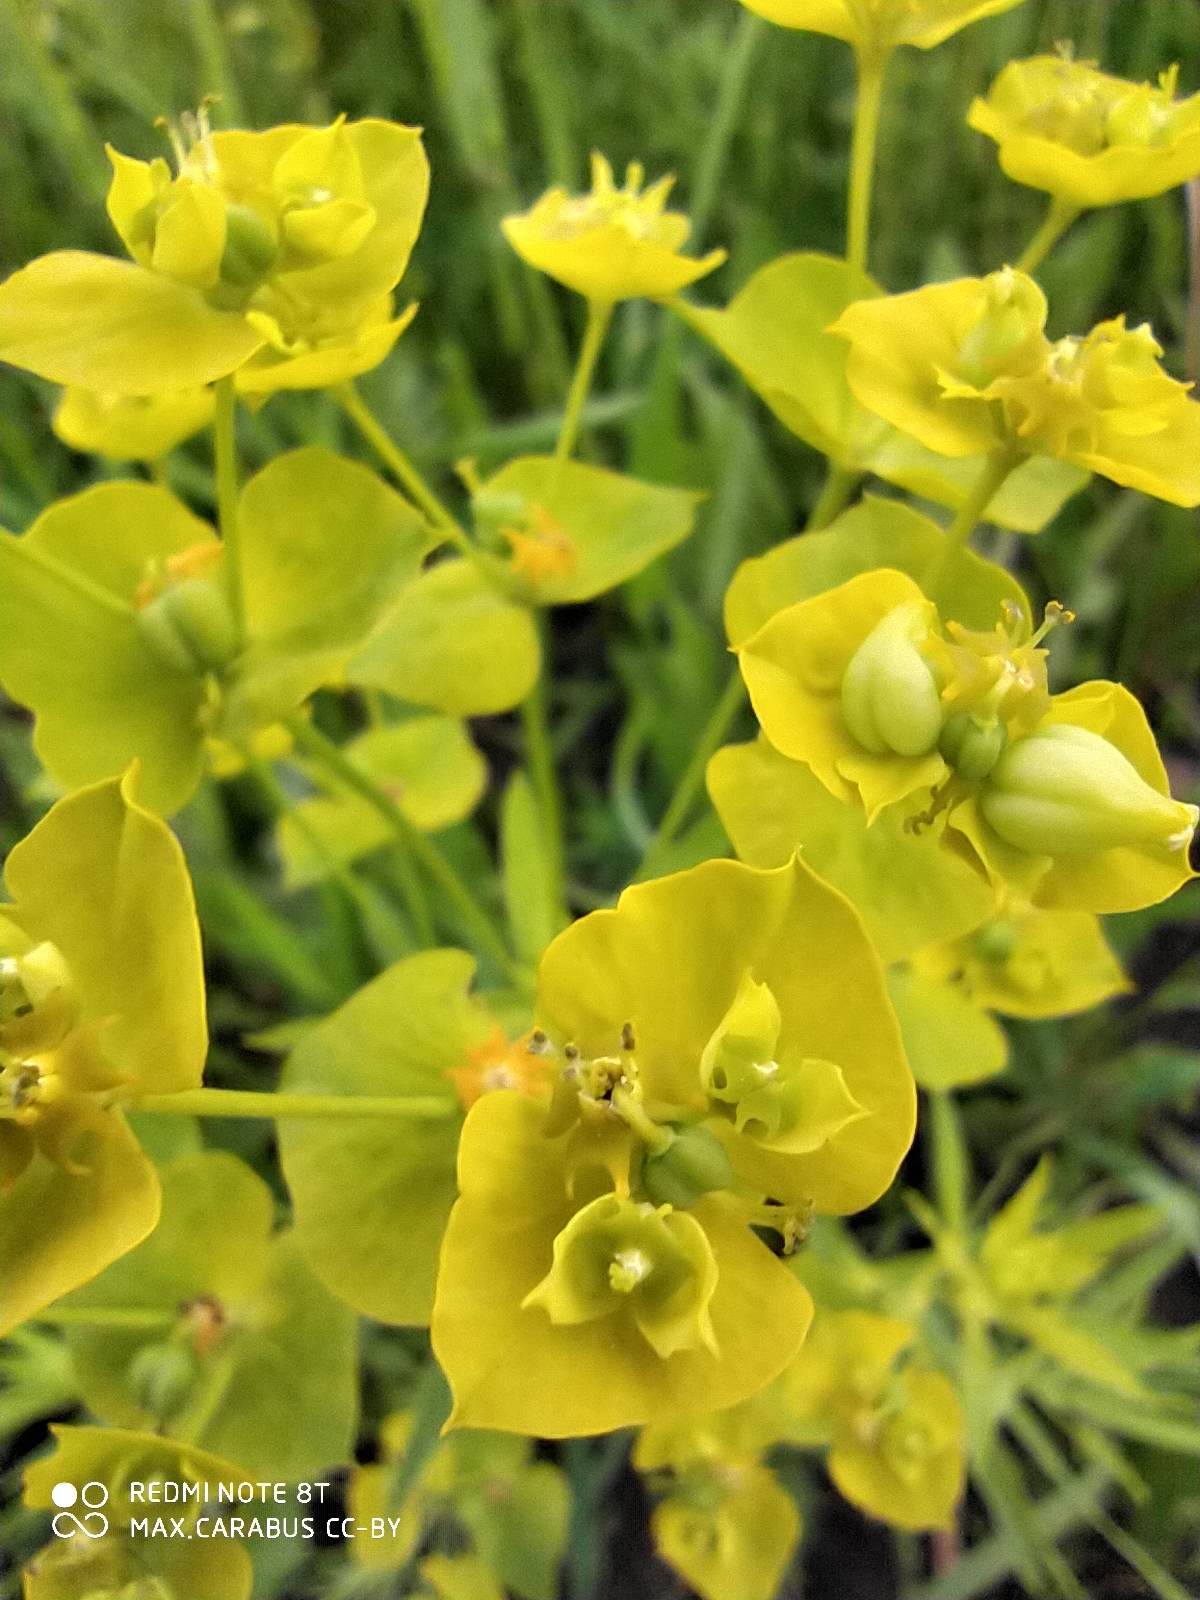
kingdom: Plantae
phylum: Tracheophyta
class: Magnoliopsida
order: Malpighiales
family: Euphorbiaceae
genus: Euphorbia
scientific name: Euphorbia virgata
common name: Leafy spurge
